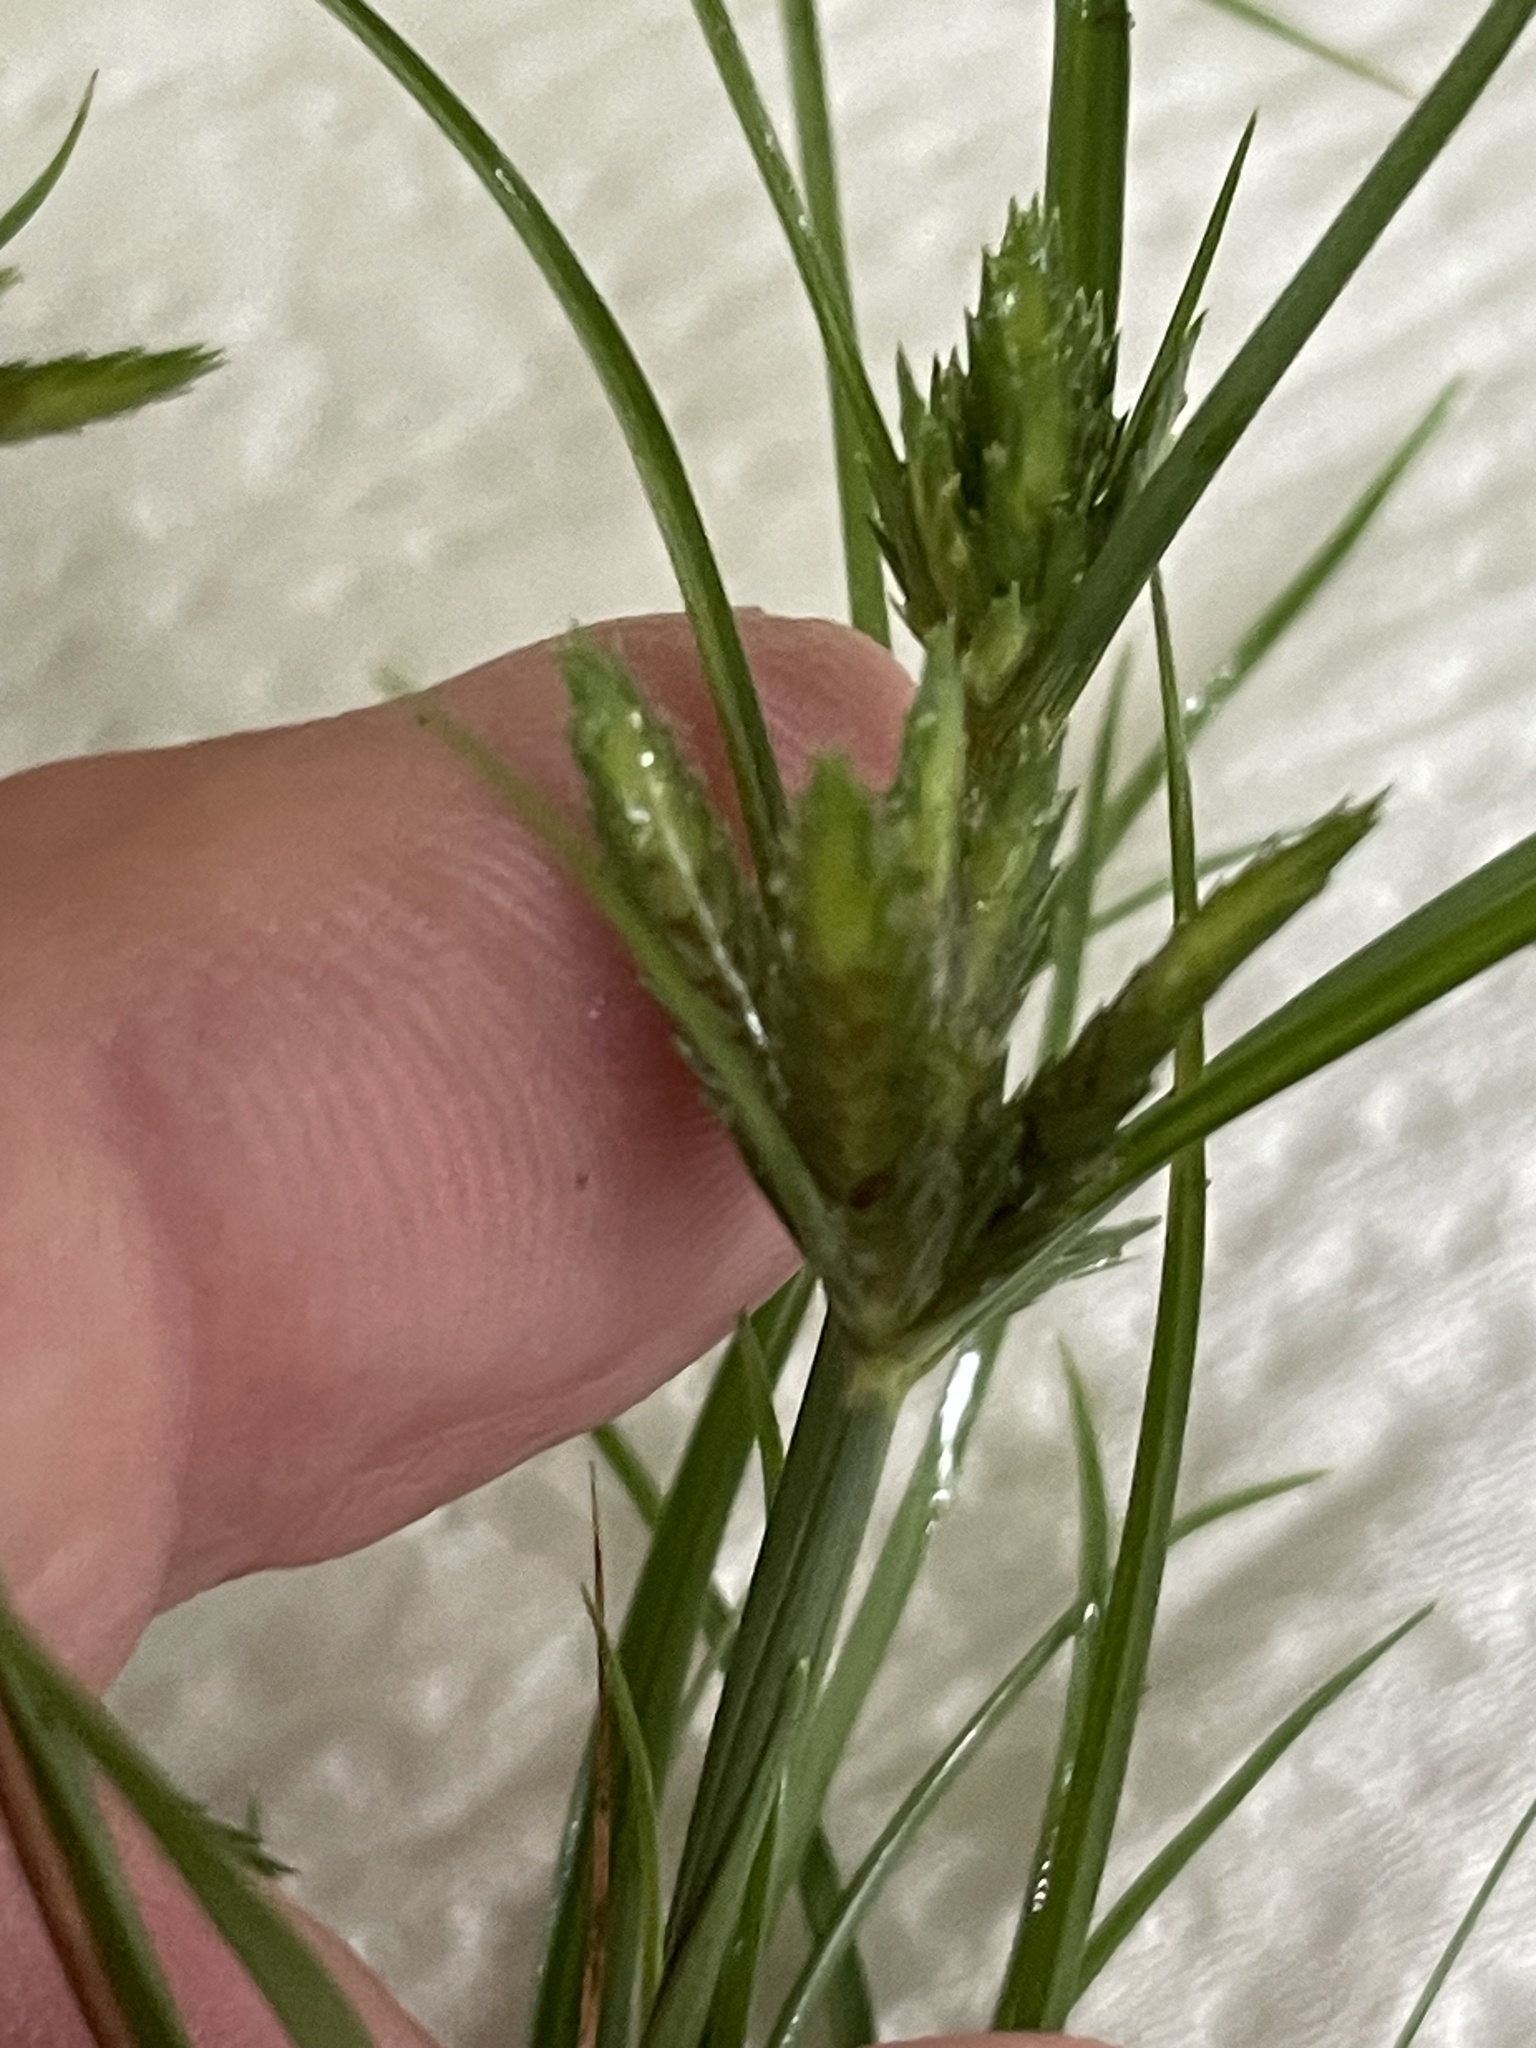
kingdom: Plantae
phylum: Tracheophyta
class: Liliopsida
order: Poales
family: Cyperaceae
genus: Cyperus
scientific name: Cyperus compressus
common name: Poorland flatsedge
